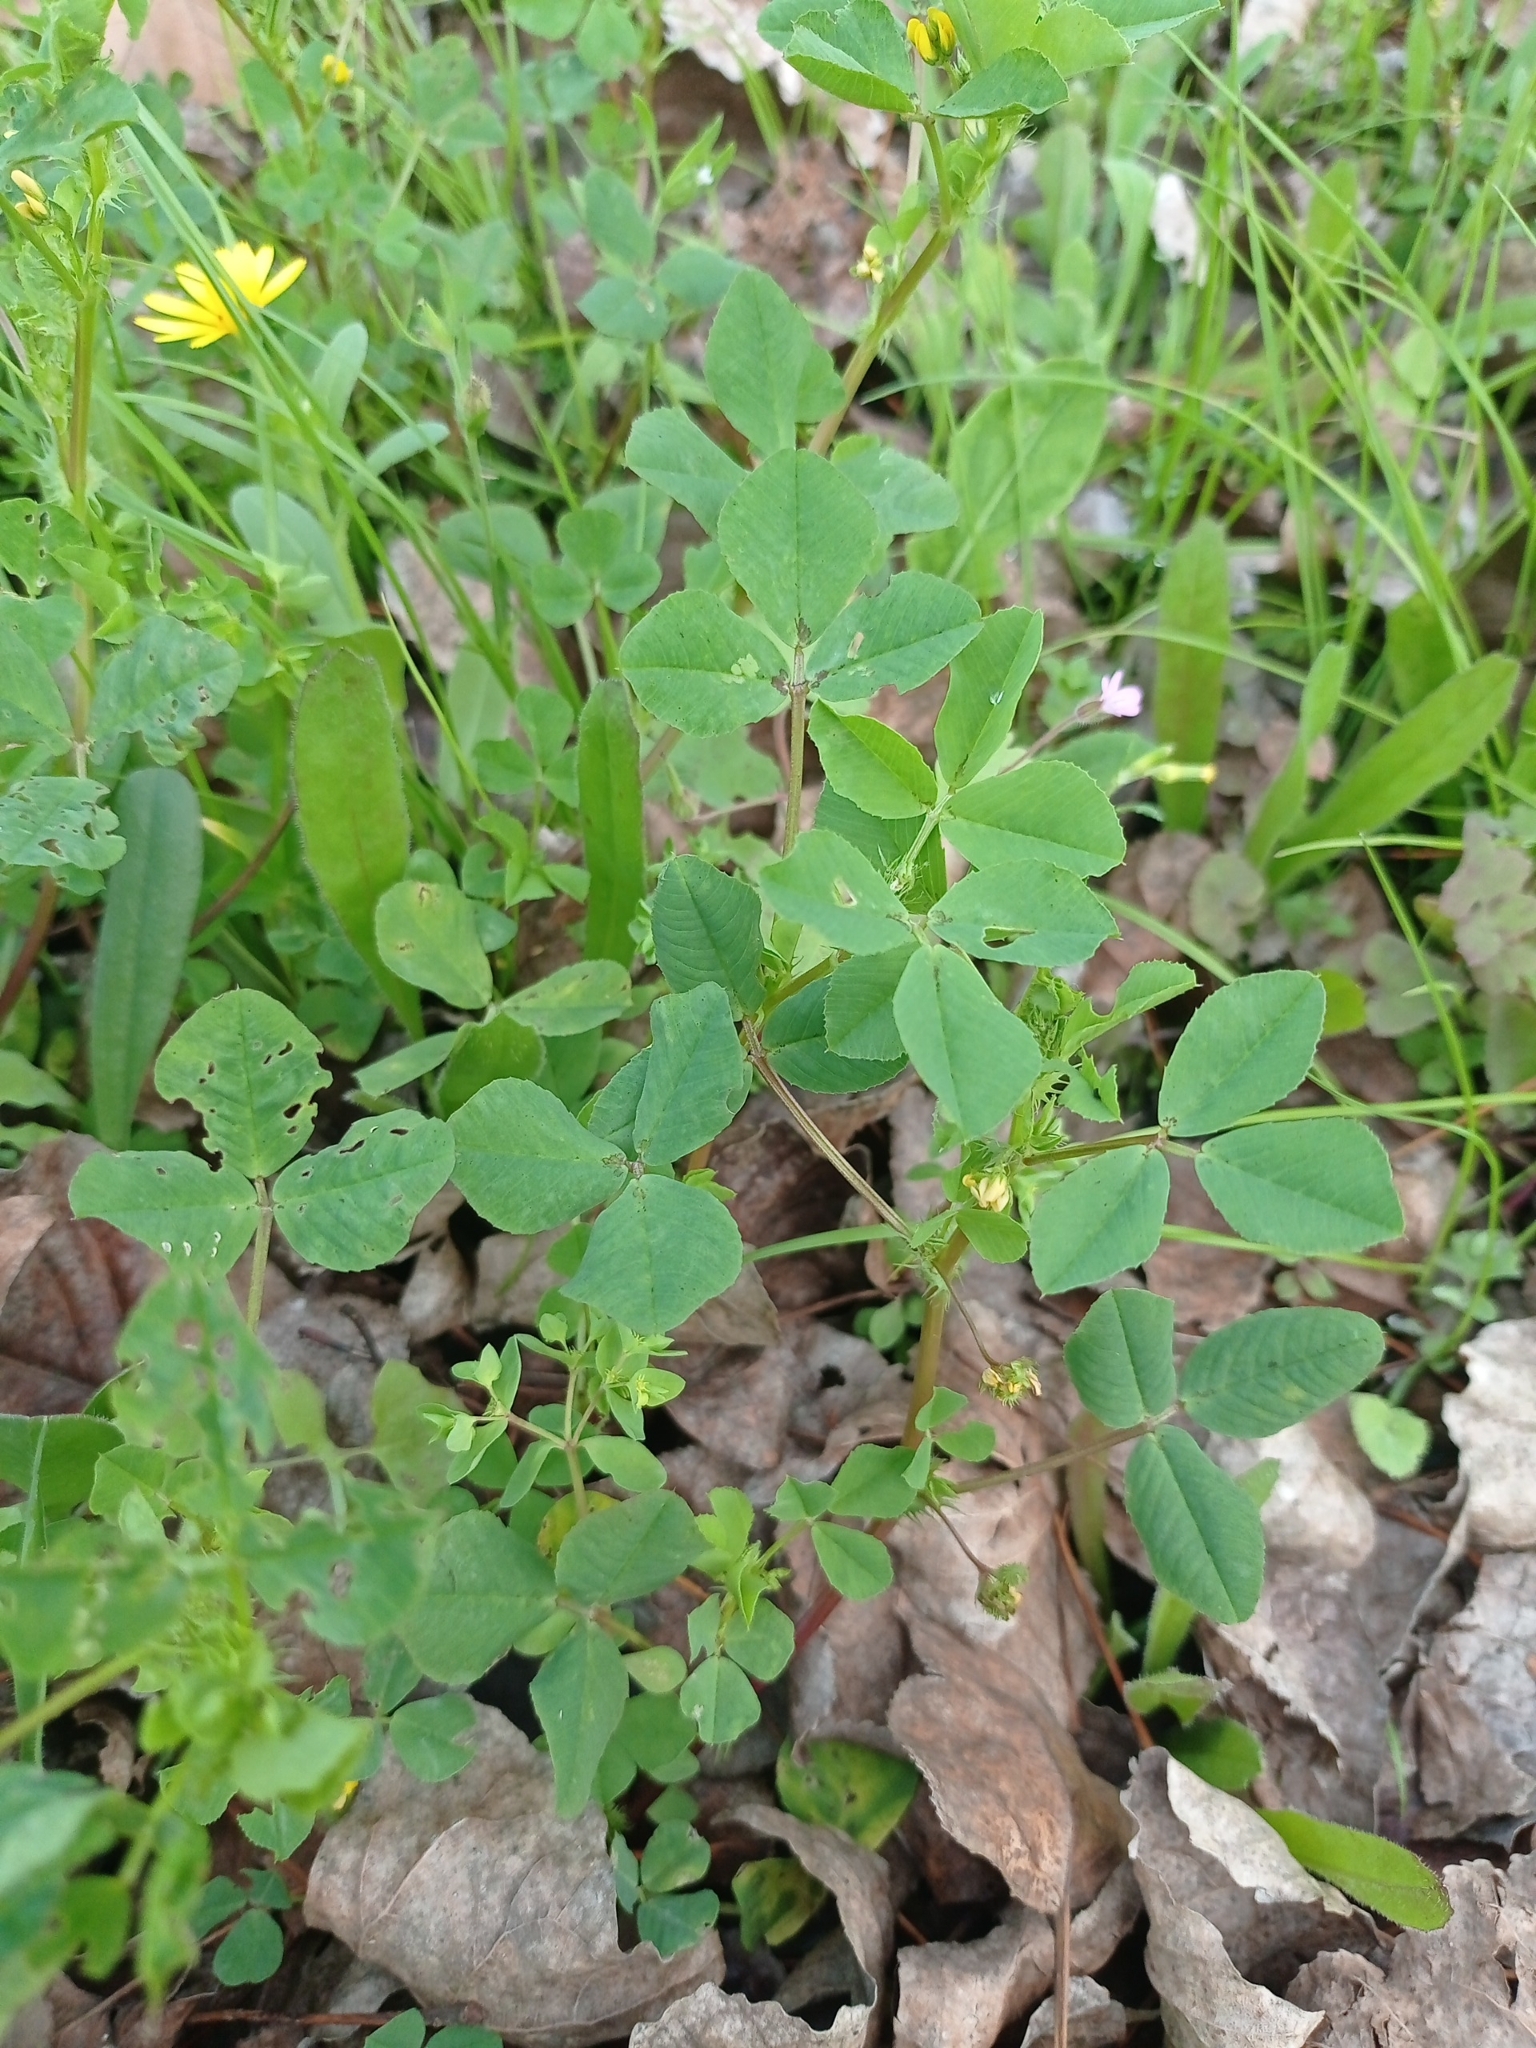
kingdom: Plantae
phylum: Tracheophyta
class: Magnoliopsida
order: Fabales
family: Fabaceae
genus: Medicago
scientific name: Medicago polymorpha
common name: Burclover
